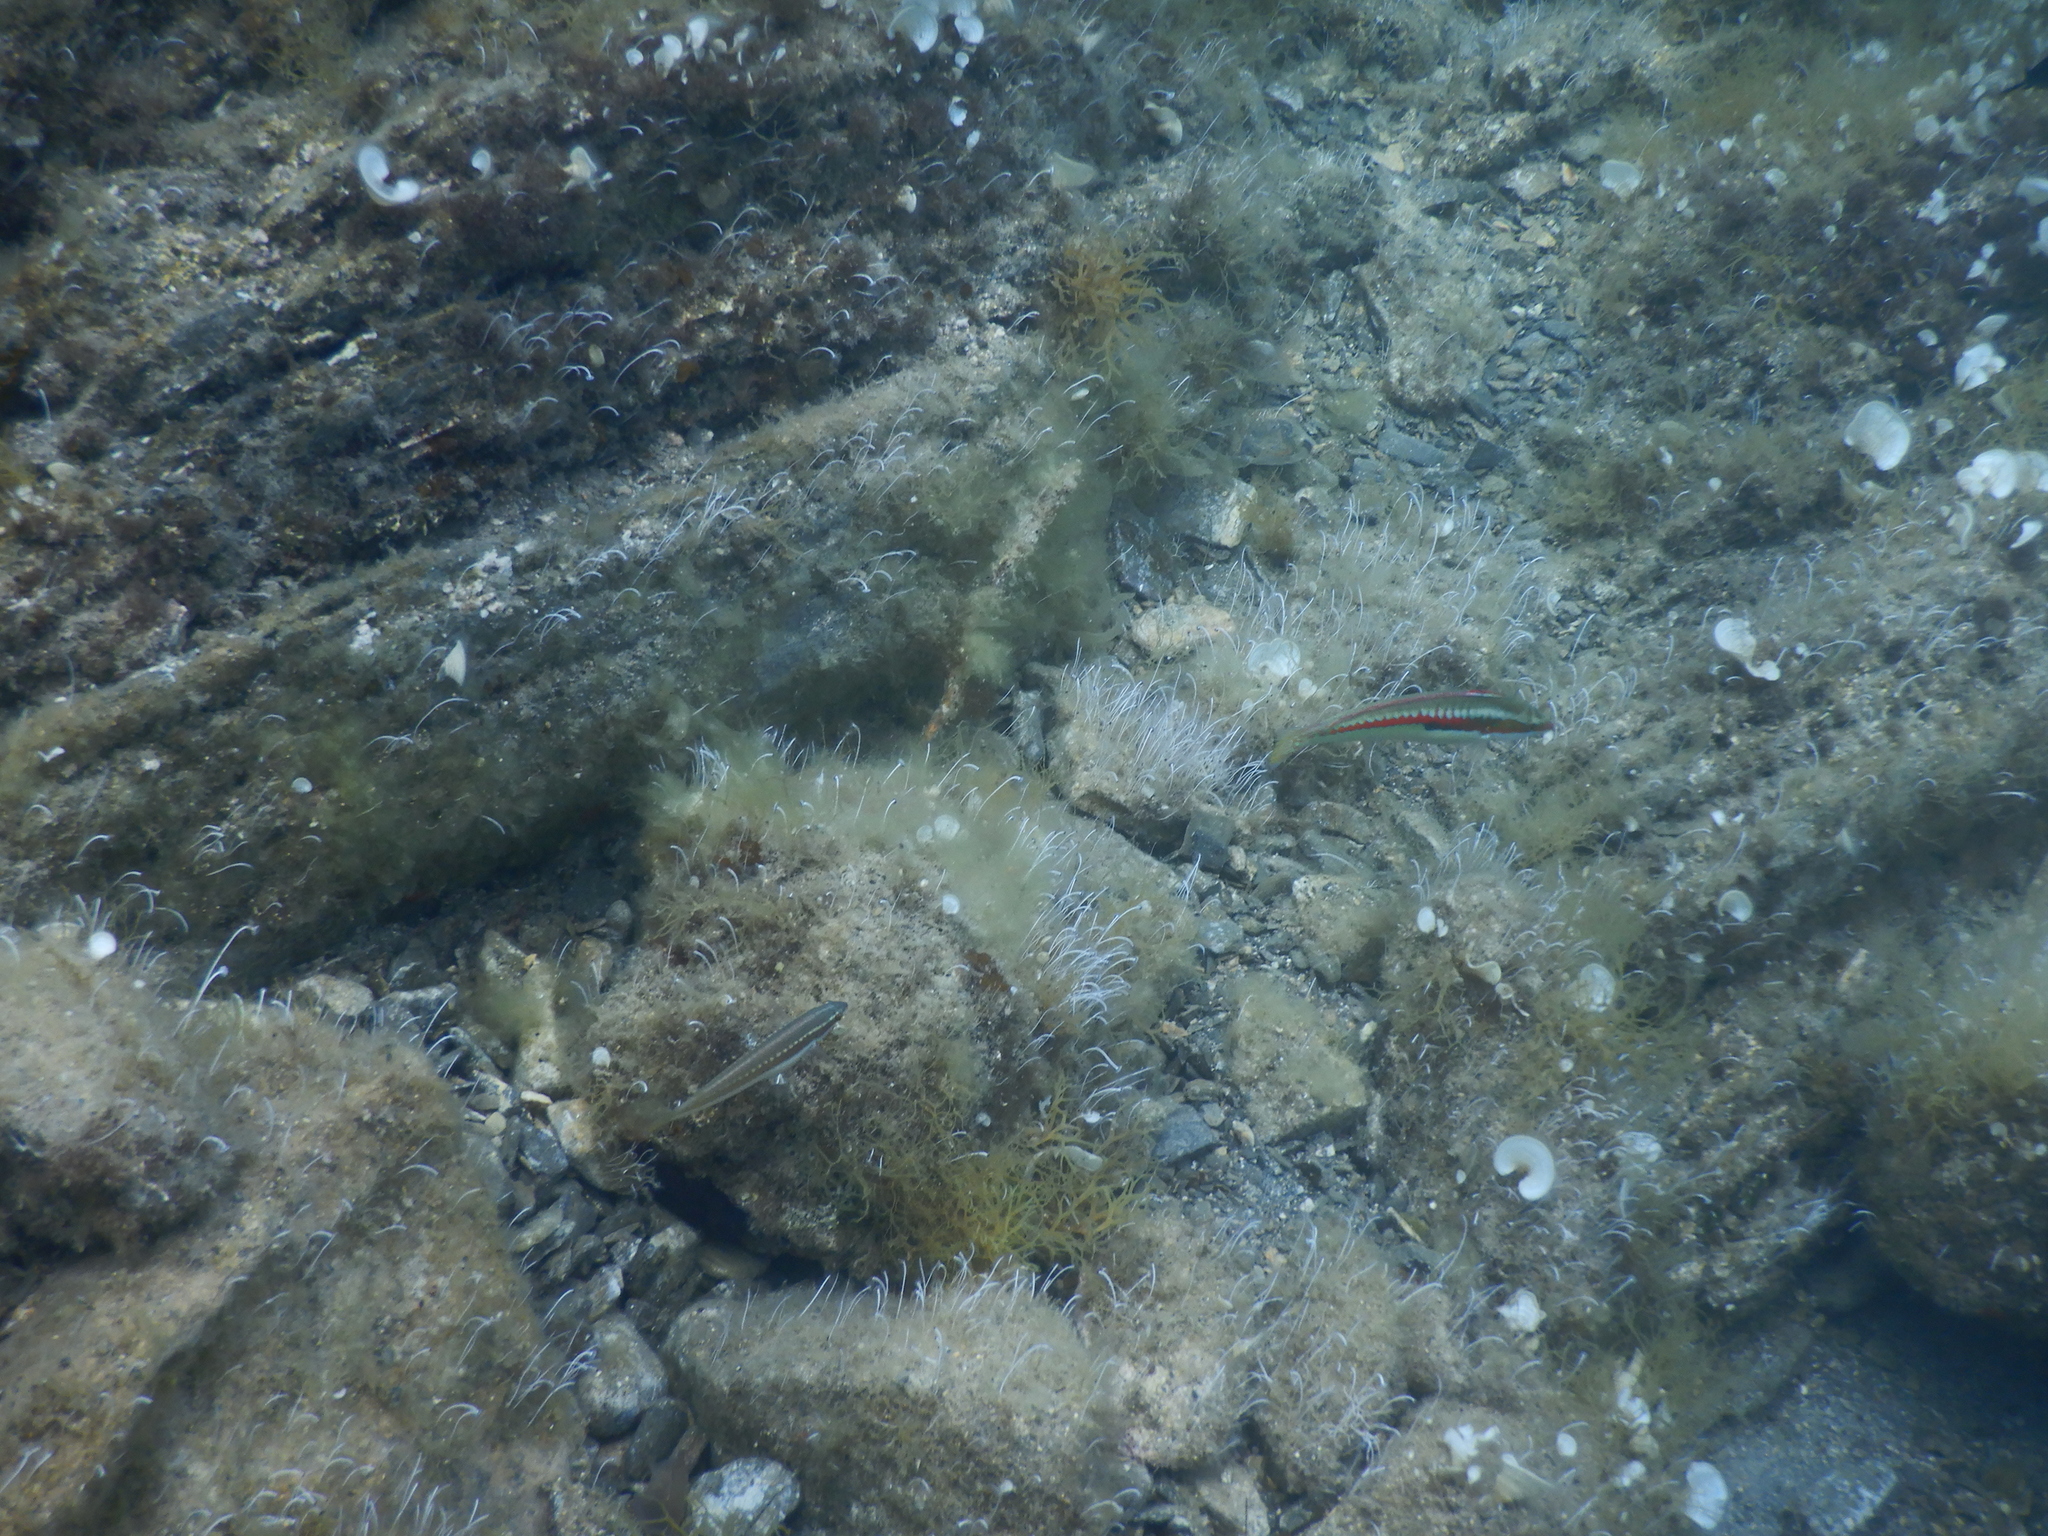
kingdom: Animalia
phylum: Chordata
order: Perciformes
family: Labridae
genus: Coris
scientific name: Coris julis
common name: Rainbow wrasse
